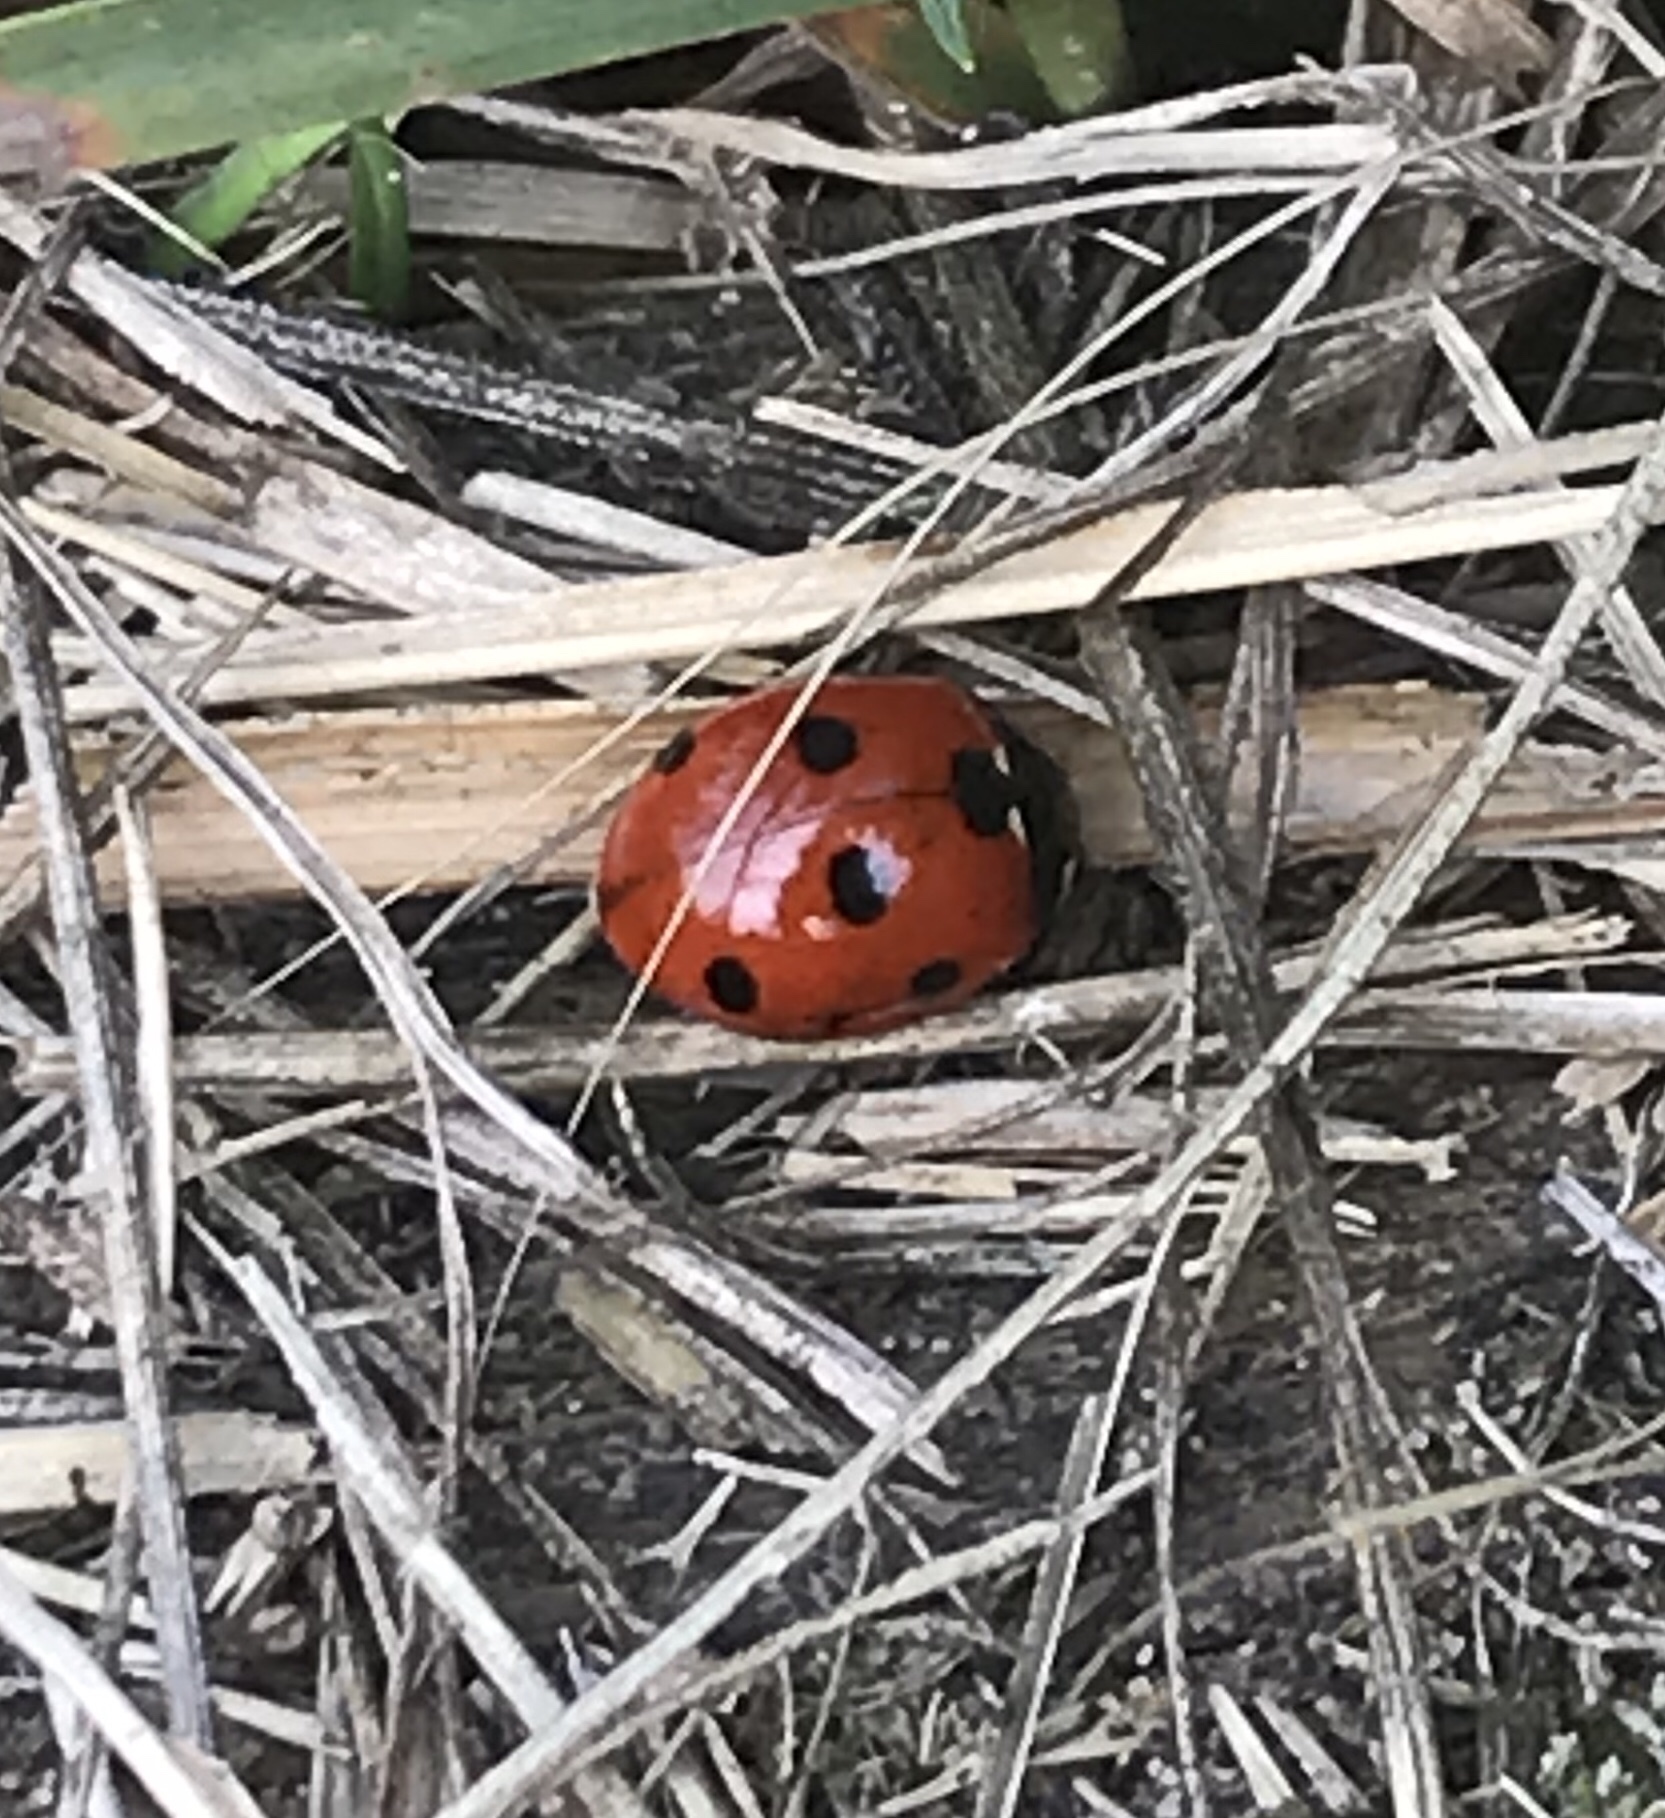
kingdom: Animalia
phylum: Arthropoda
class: Insecta
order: Coleoptera
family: Coccinellidae
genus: Coccinella
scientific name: Coccinella septempunctata
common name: Sevenspotted lady beetle
